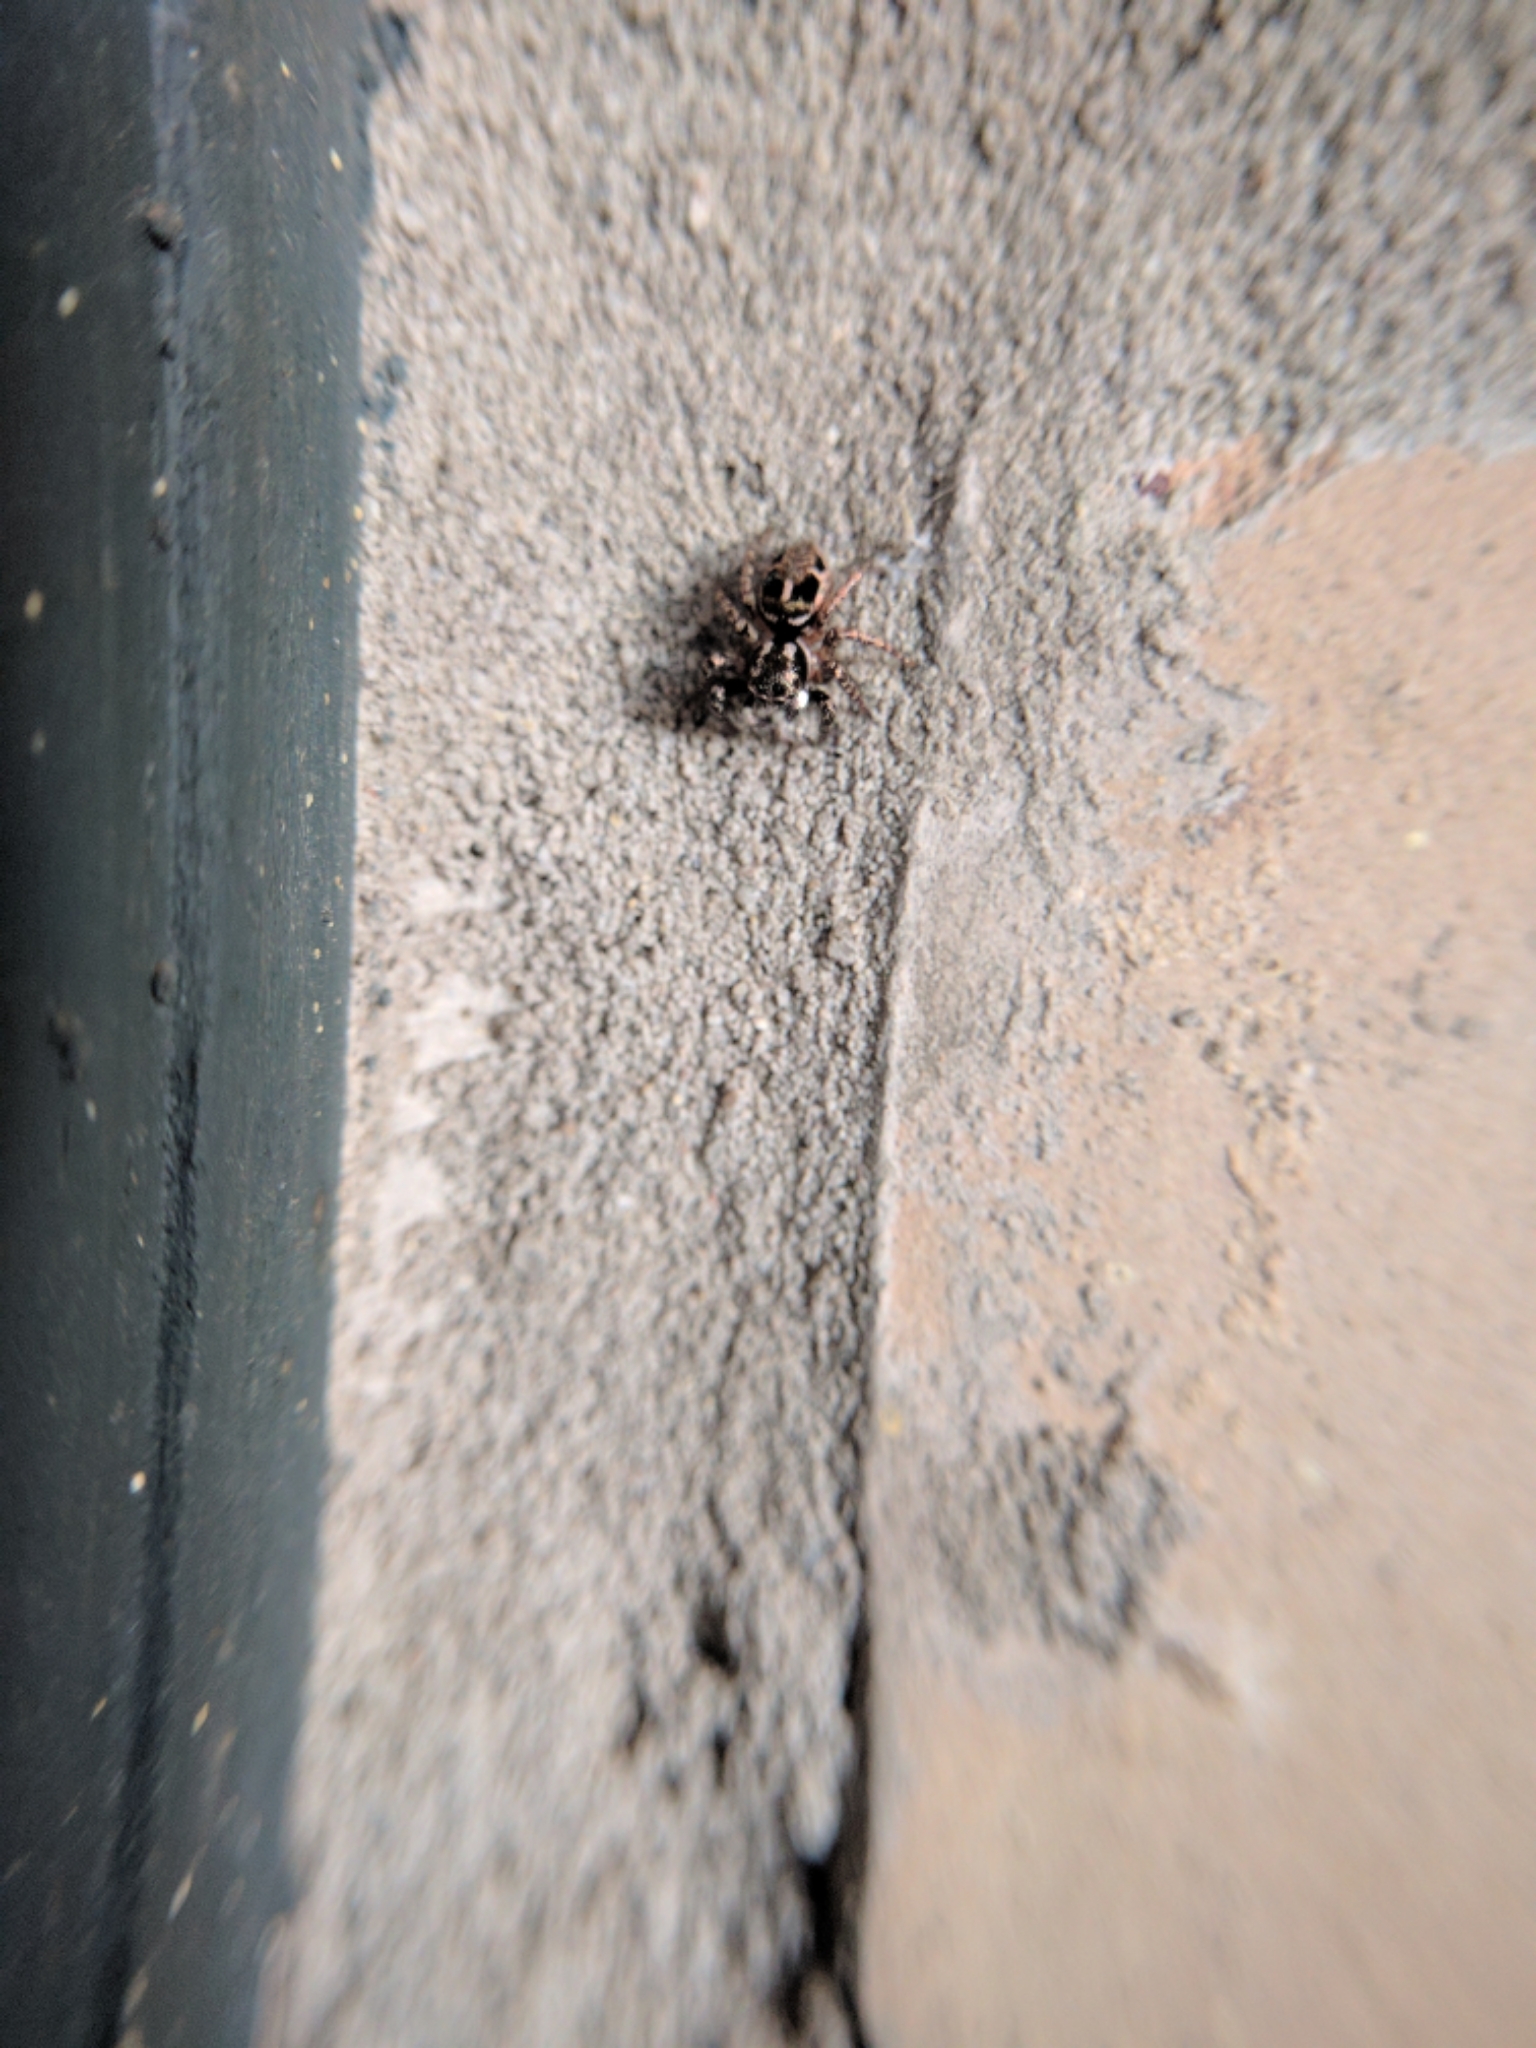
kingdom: Animalia
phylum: Arthropoda
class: Arachnida
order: Araneae
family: Salticidae
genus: Anasaitis
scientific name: Anasaitis canosa
